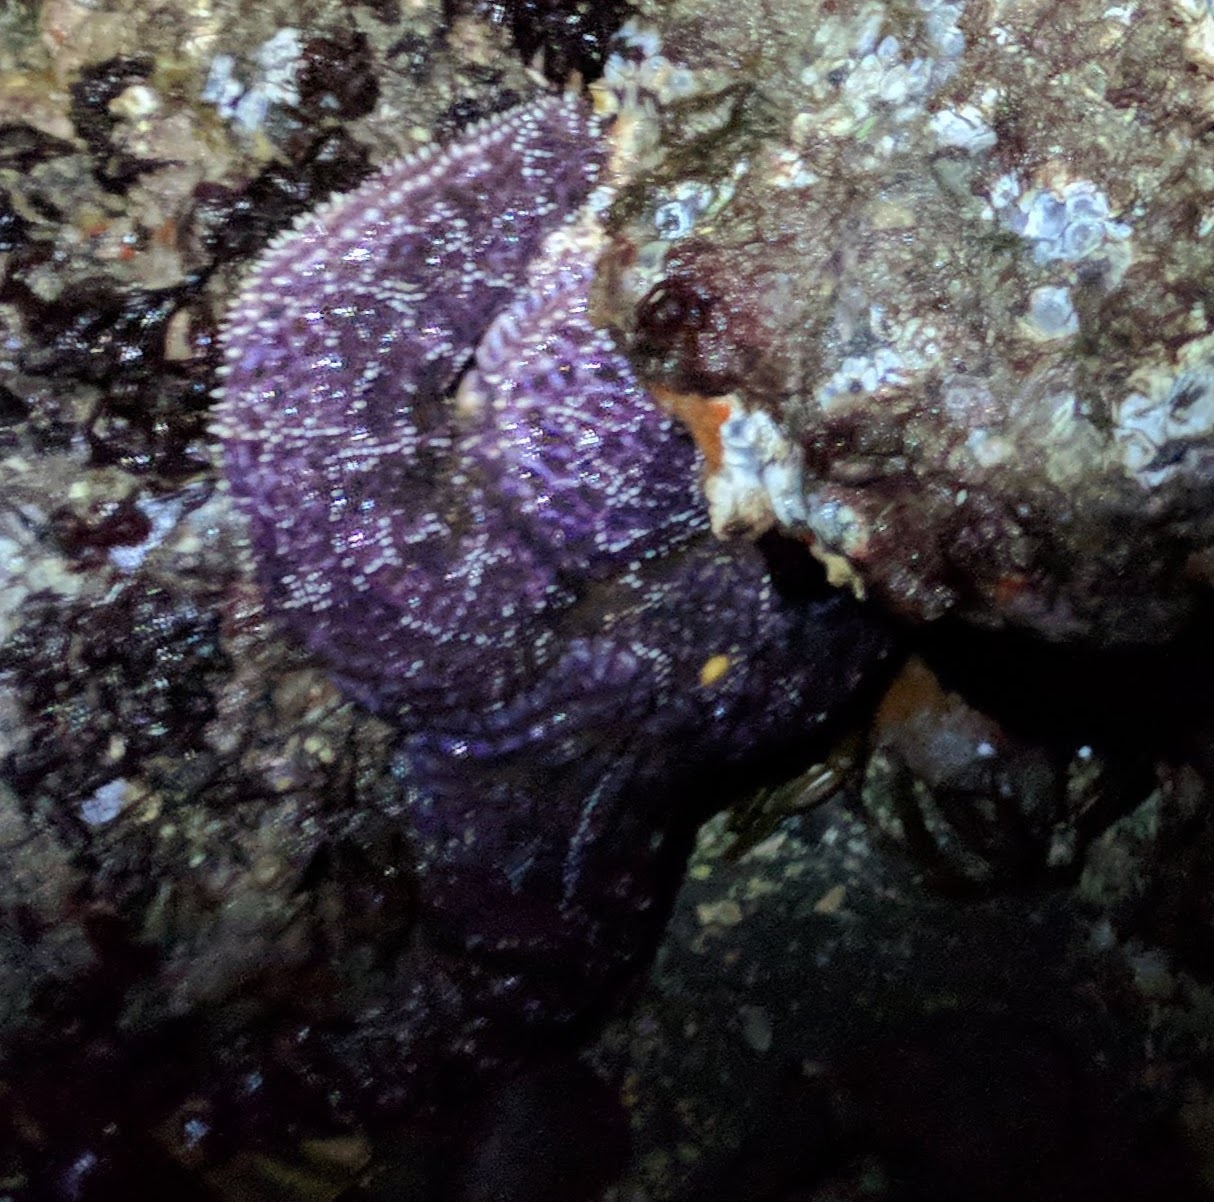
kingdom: Animalia
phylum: Echinodermata
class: Asteroidea
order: Forcipulatida
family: Asteriidae
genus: Pisaster
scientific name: Pisaster ochraceus
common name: Ochre stars
